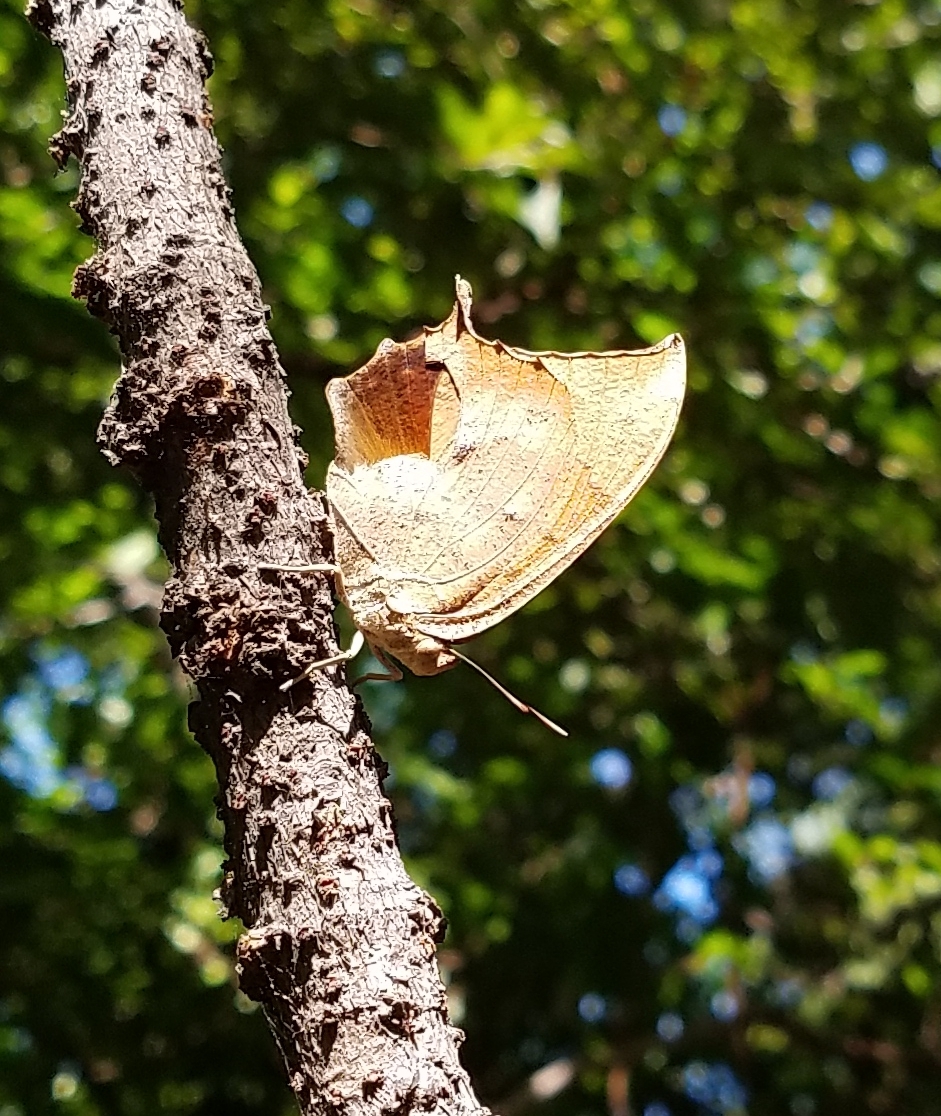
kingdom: Animalia
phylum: Arthropoda
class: Insecta
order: Lepidoptera
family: Nymphalidae
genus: Anaea
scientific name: Anaea aidea
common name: Tropical leafwing
